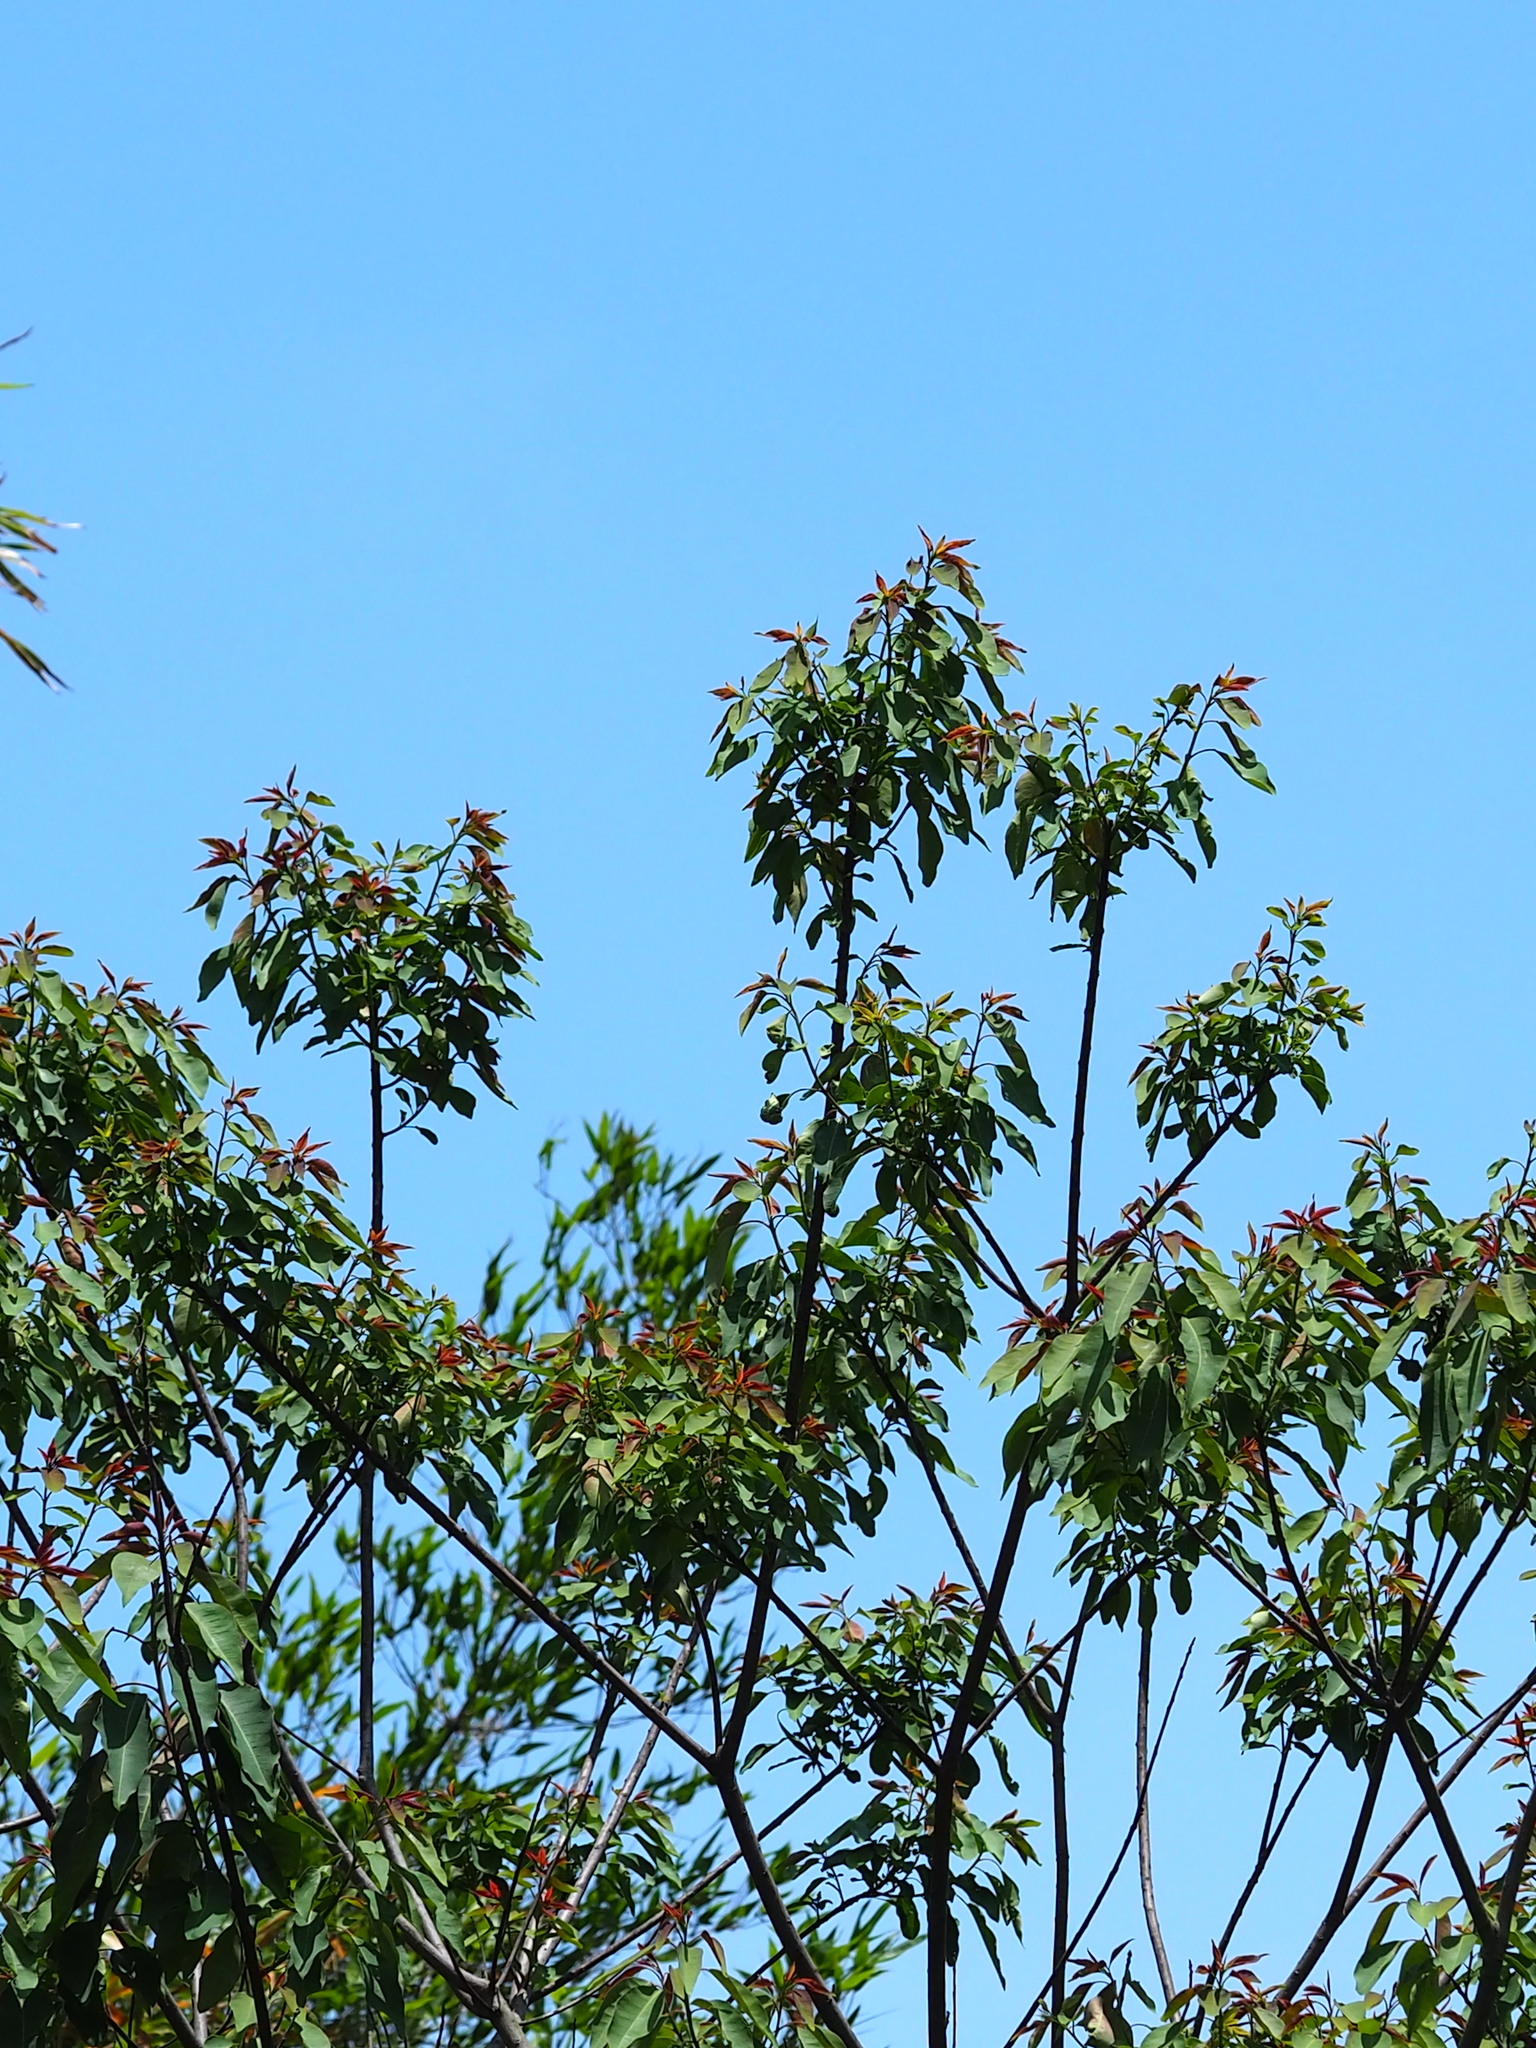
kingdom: Plantae
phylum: Tracheophyta
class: Magnoliopsida
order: Malpighiales
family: Euphorbiaceae
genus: Triadica
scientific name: Triadica cochinchinensis
